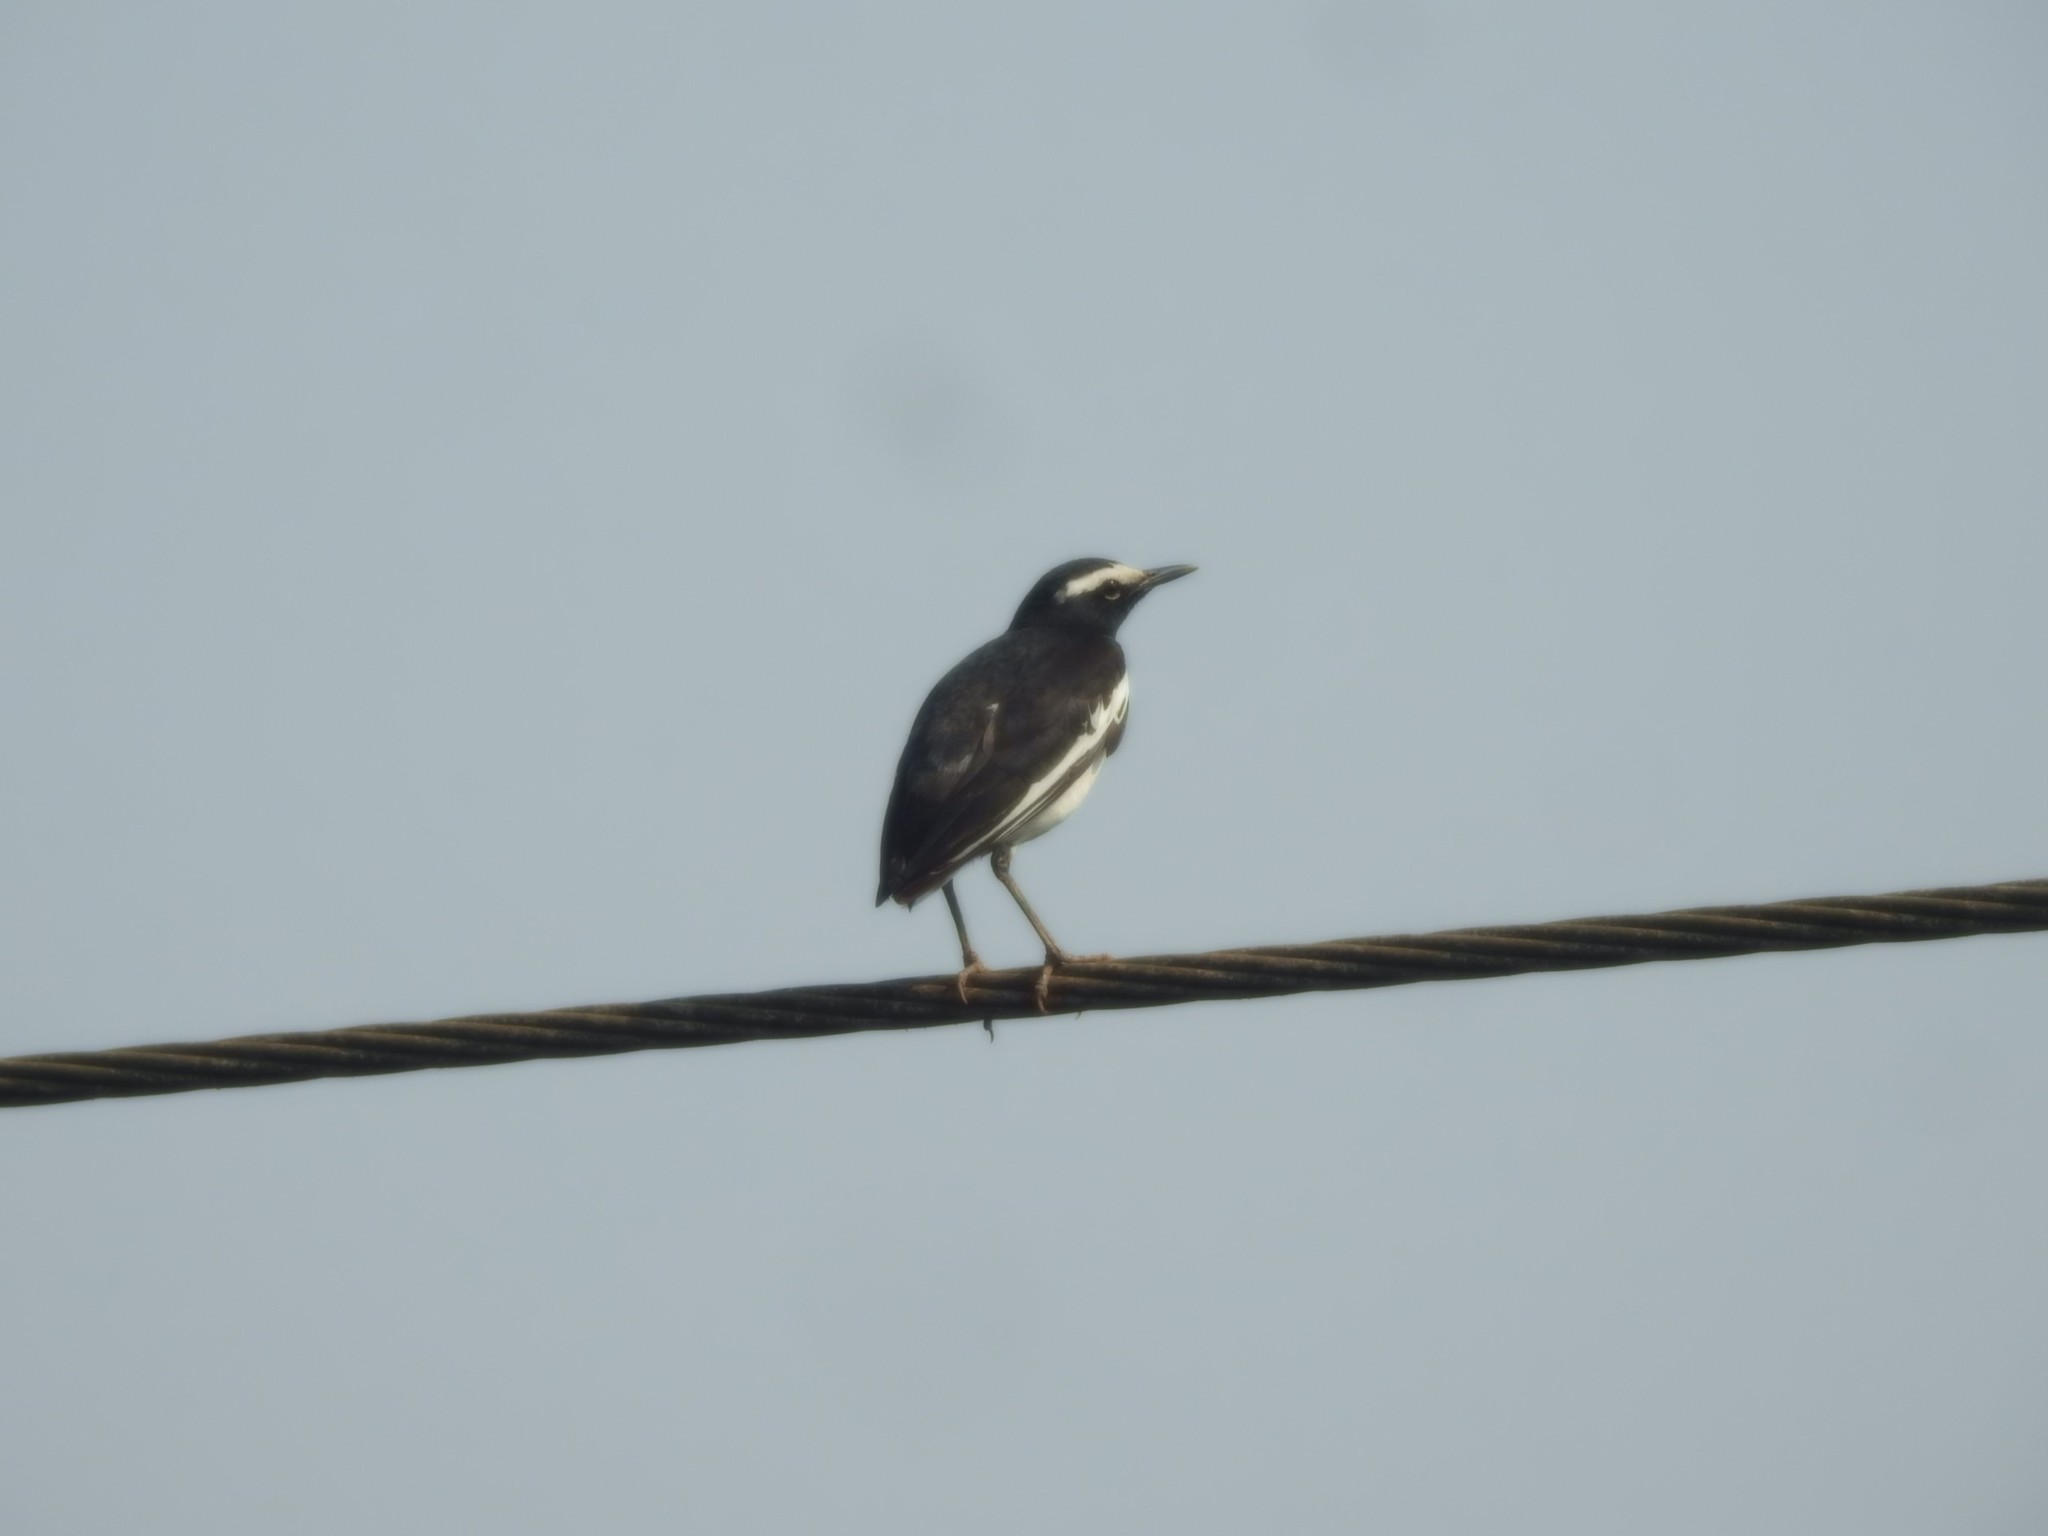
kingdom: Animalia
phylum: Chordata
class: Aves
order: Passeriformes
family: Motacillidae
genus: Motacilla
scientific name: Motacilla maderaspatensis
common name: White-browed wagtail
